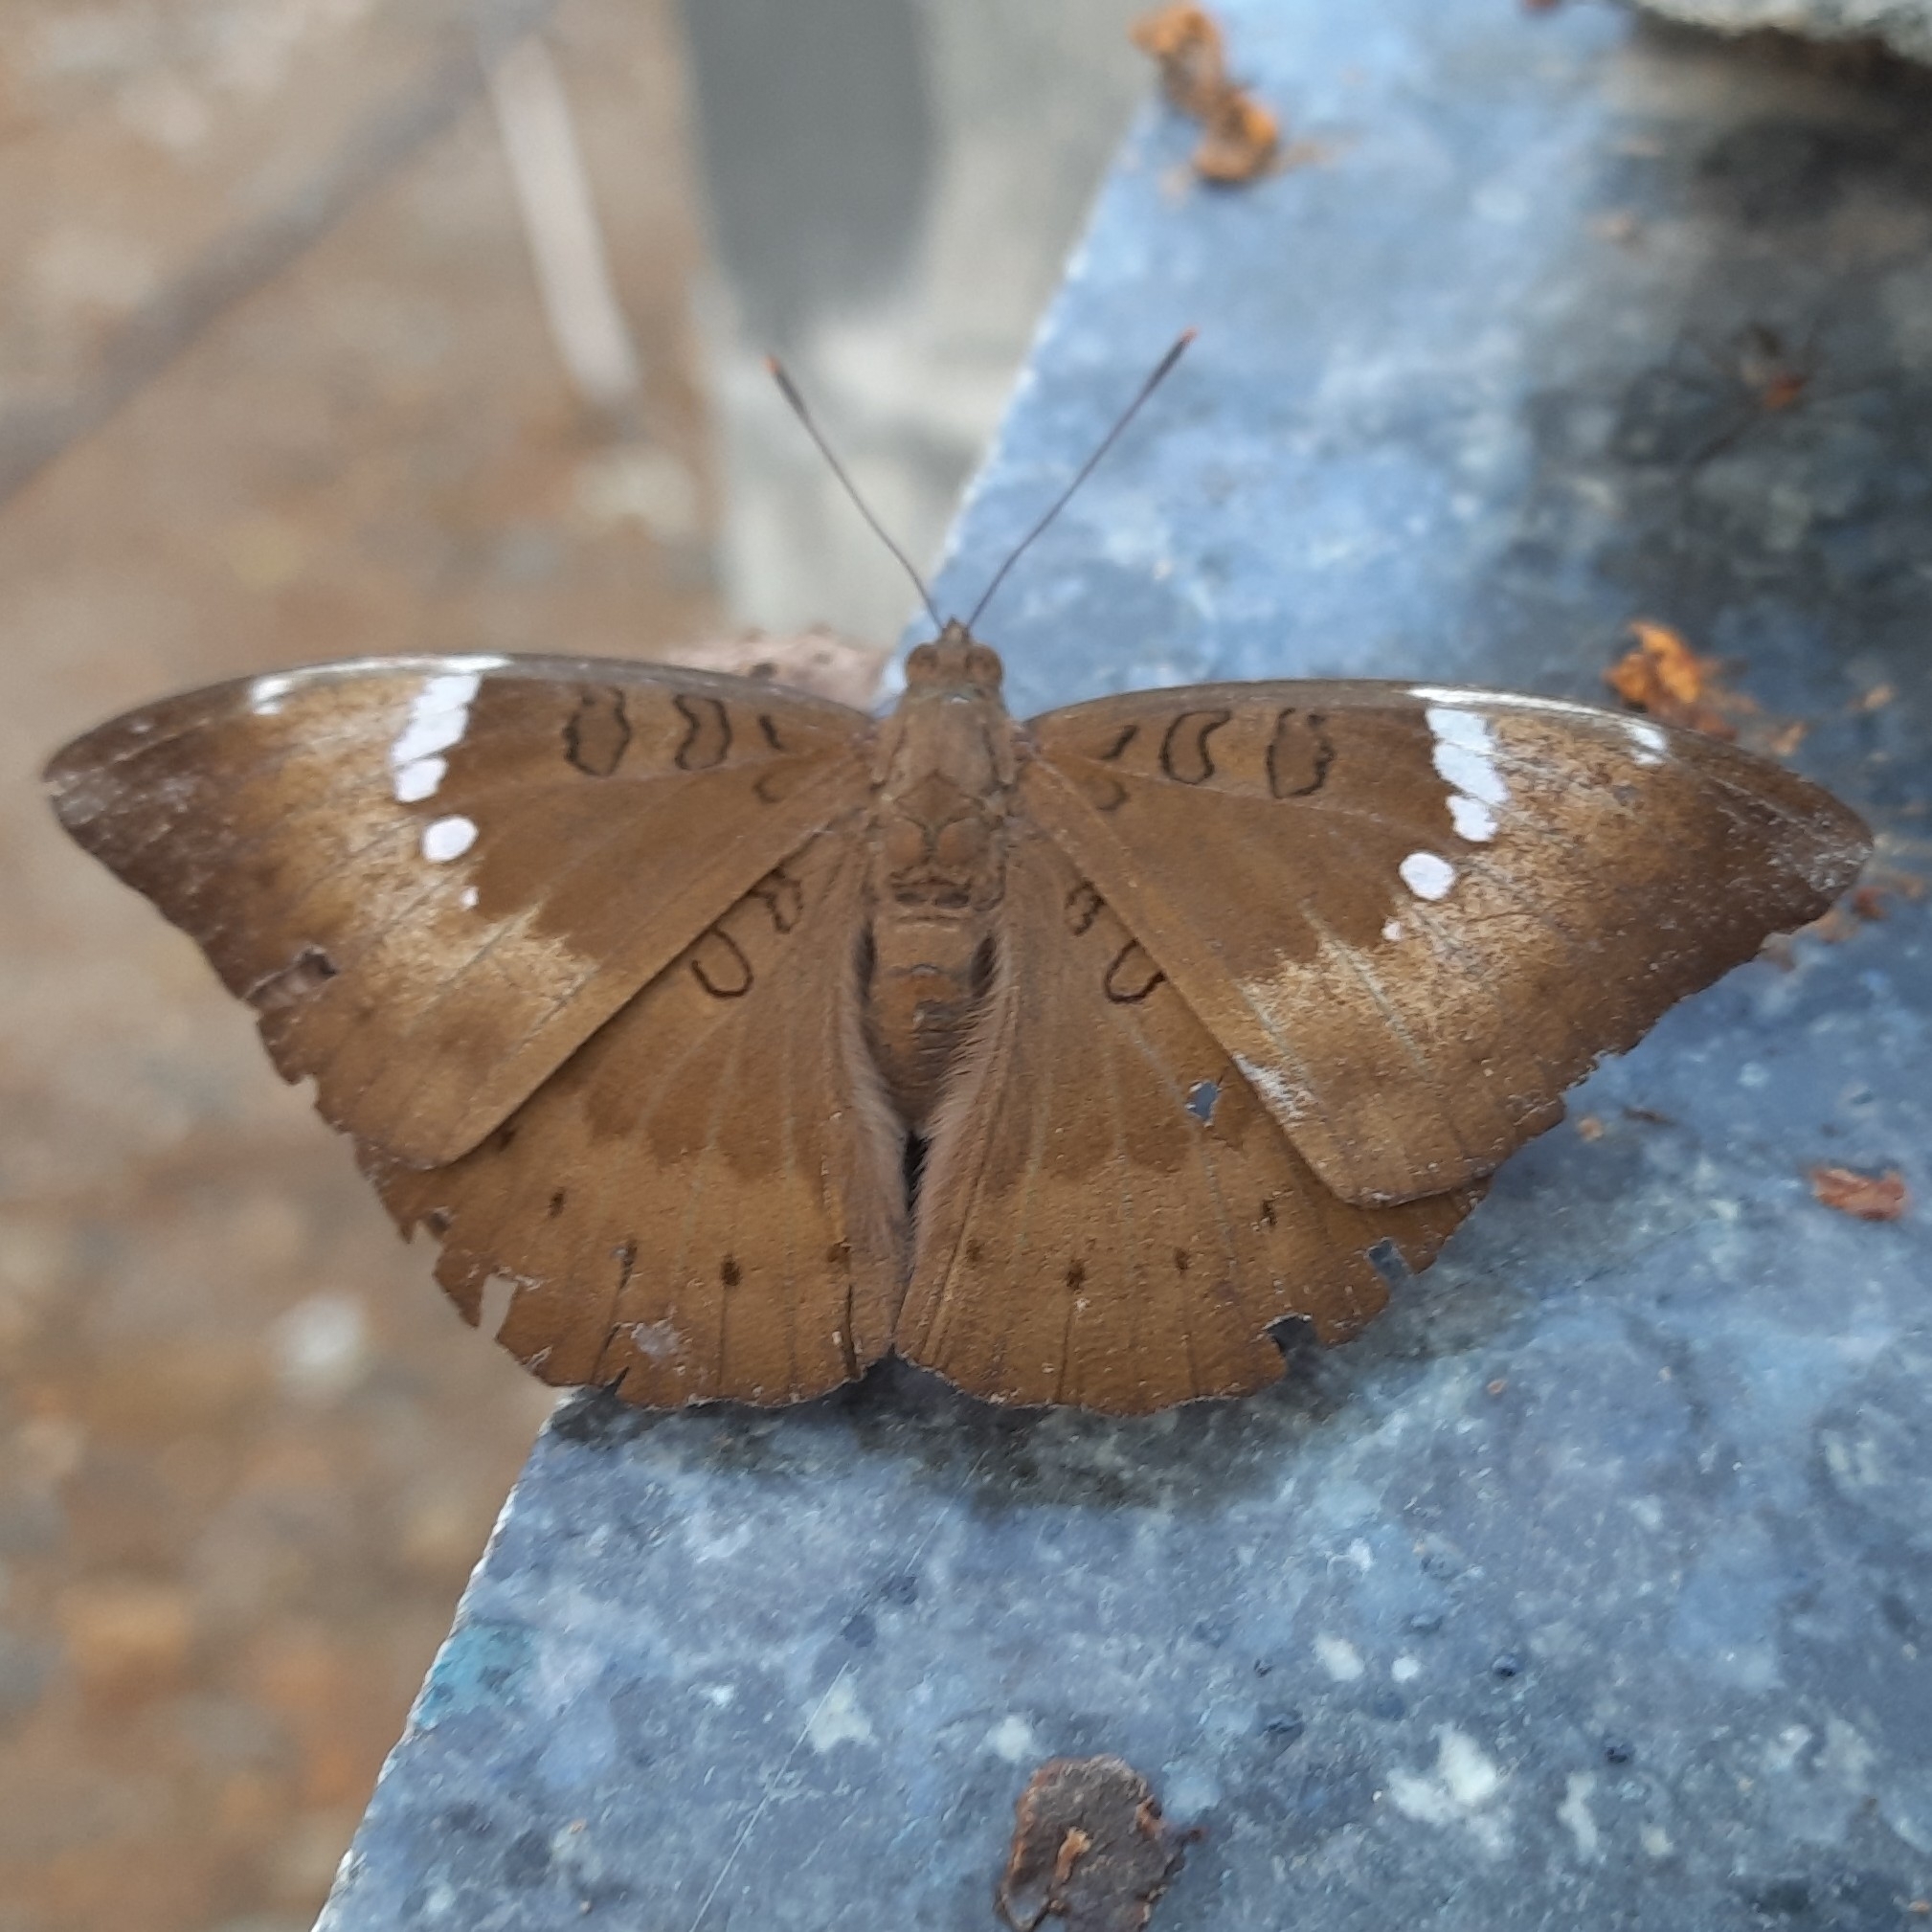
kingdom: Animalia
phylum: Arthropoda
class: Insecta
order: Lepidoptera
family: Nymphalidae
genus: Euthalia
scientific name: Euthalia aconthea
